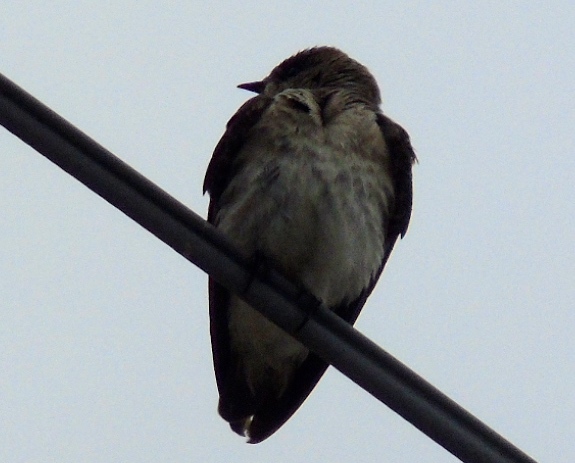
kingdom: Animalia
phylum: Chordata
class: Aves
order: Passeriformes
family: Hirundinidae
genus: Stelgidopteryx
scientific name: Stelgidopteryx serripennis
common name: Northern rough-winged swallow
